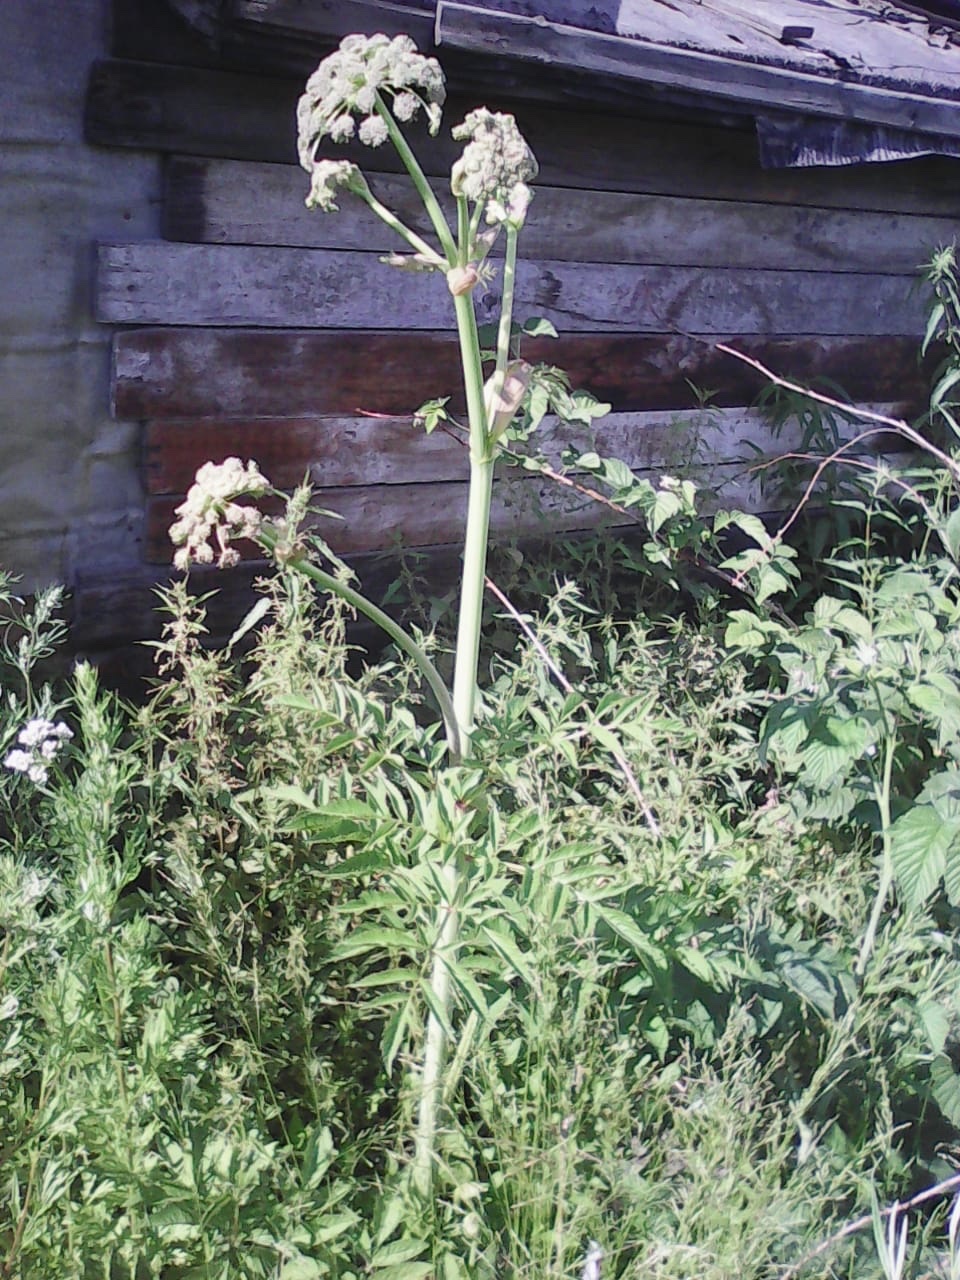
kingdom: Plantae
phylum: Tracheophyta
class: Magnoliopsida
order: Apiales
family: Apiaceae
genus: Angelica
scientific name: Angelica sylvestris
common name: Wild angelica
